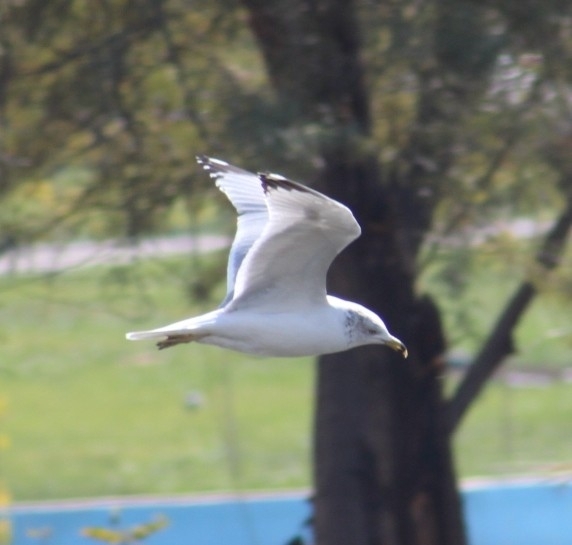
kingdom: Animalia
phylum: Chordata
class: Aves
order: Charadriiformes
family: Laridae
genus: Larus
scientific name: Larus delawarensis
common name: Ring-billed gull
